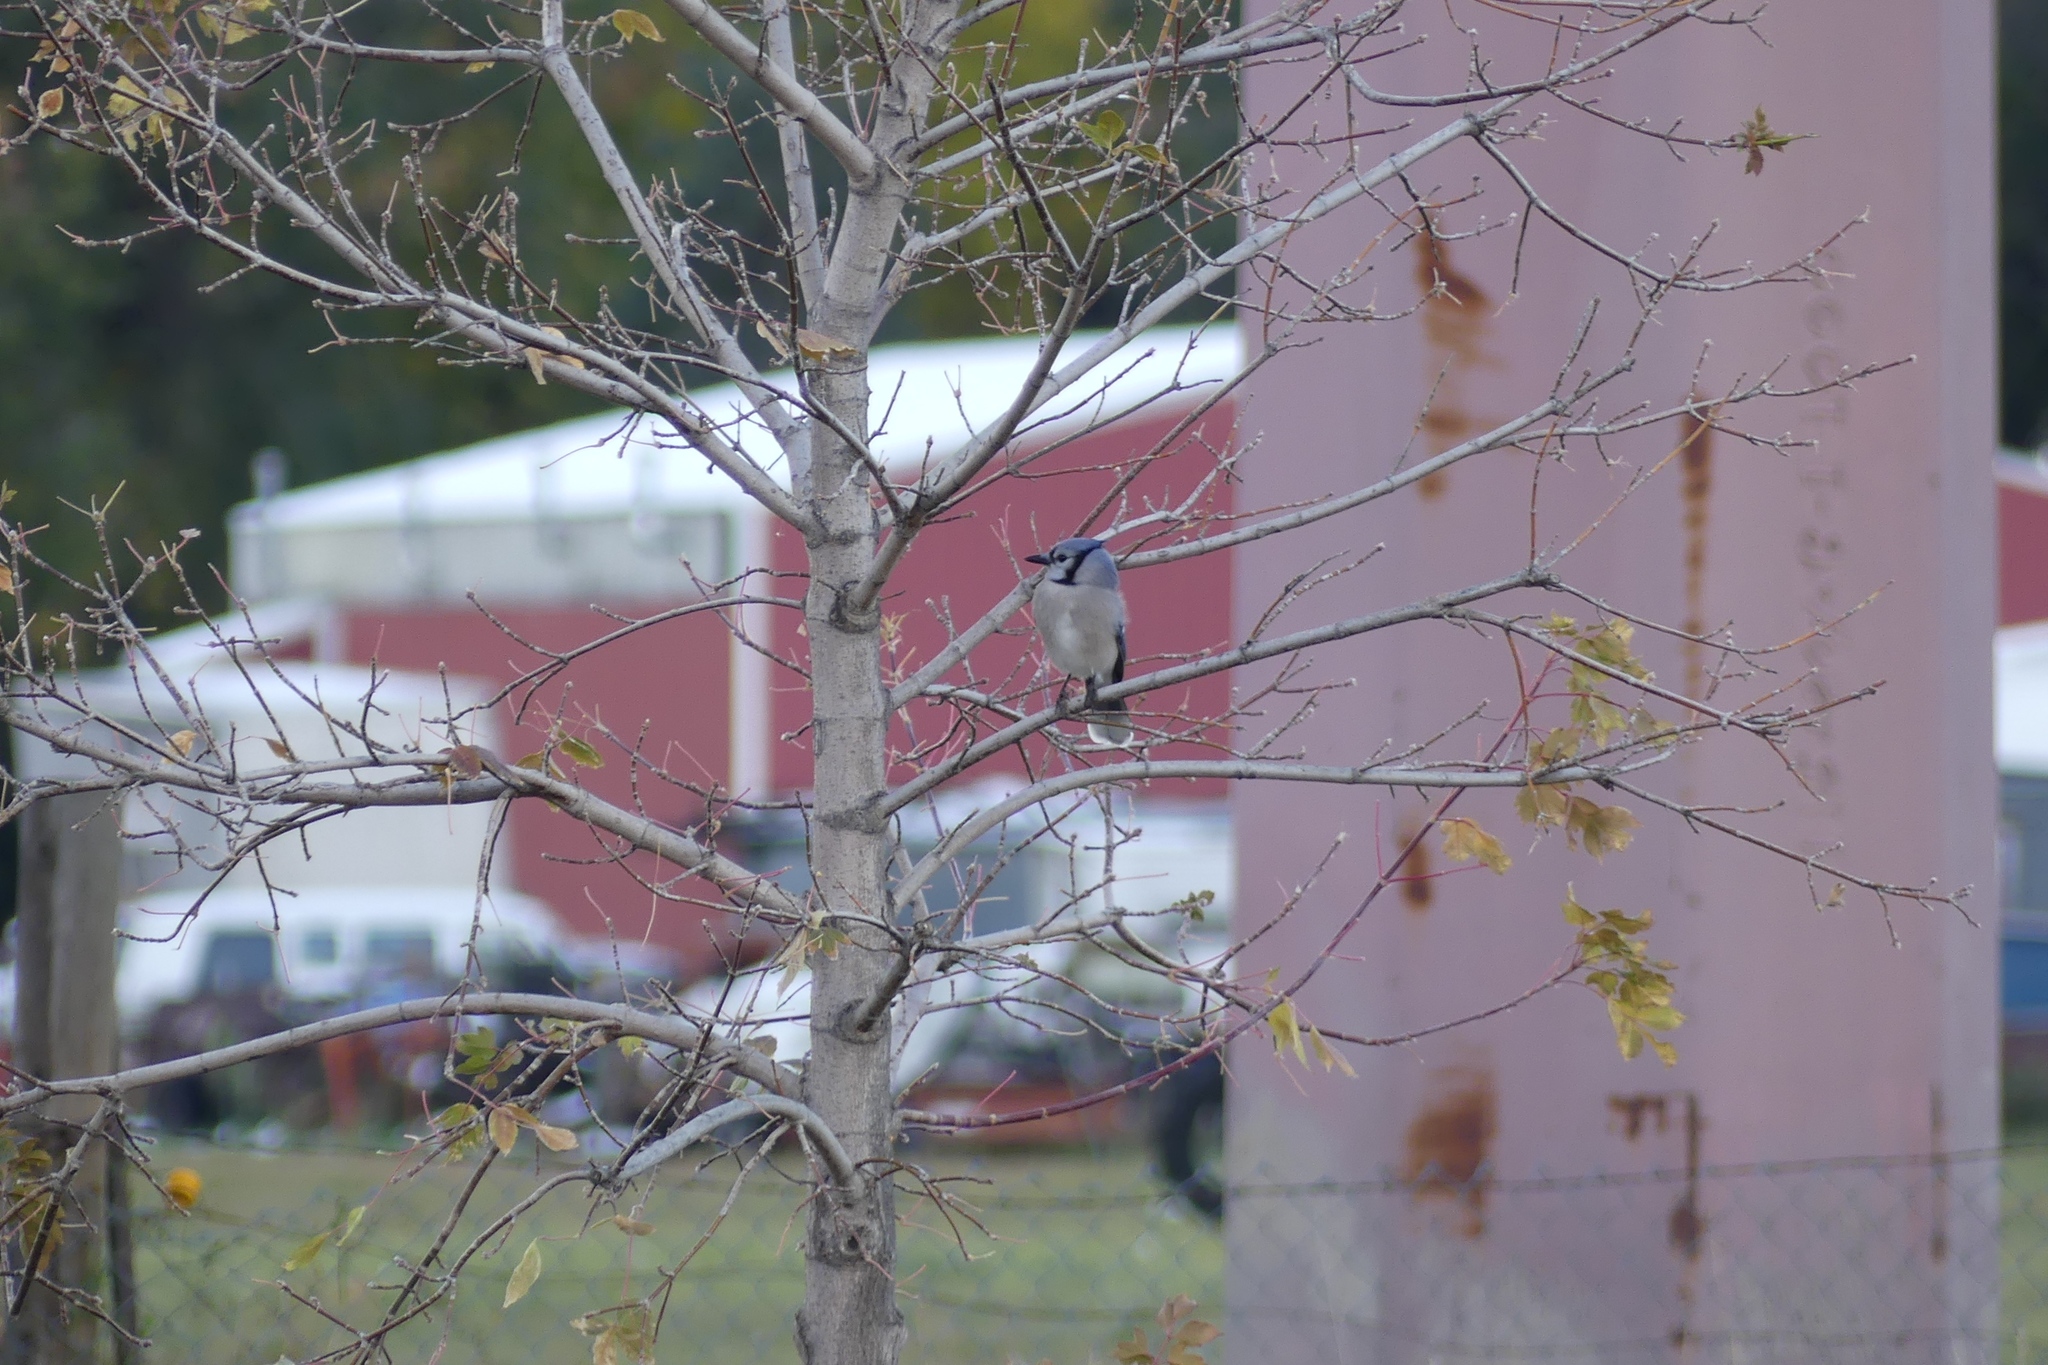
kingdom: Animalia
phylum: Chordata
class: Aves
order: Passeriformes
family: Corvidae
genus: Cyanocitta
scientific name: Cyanocitta cristata
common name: Blue jay
